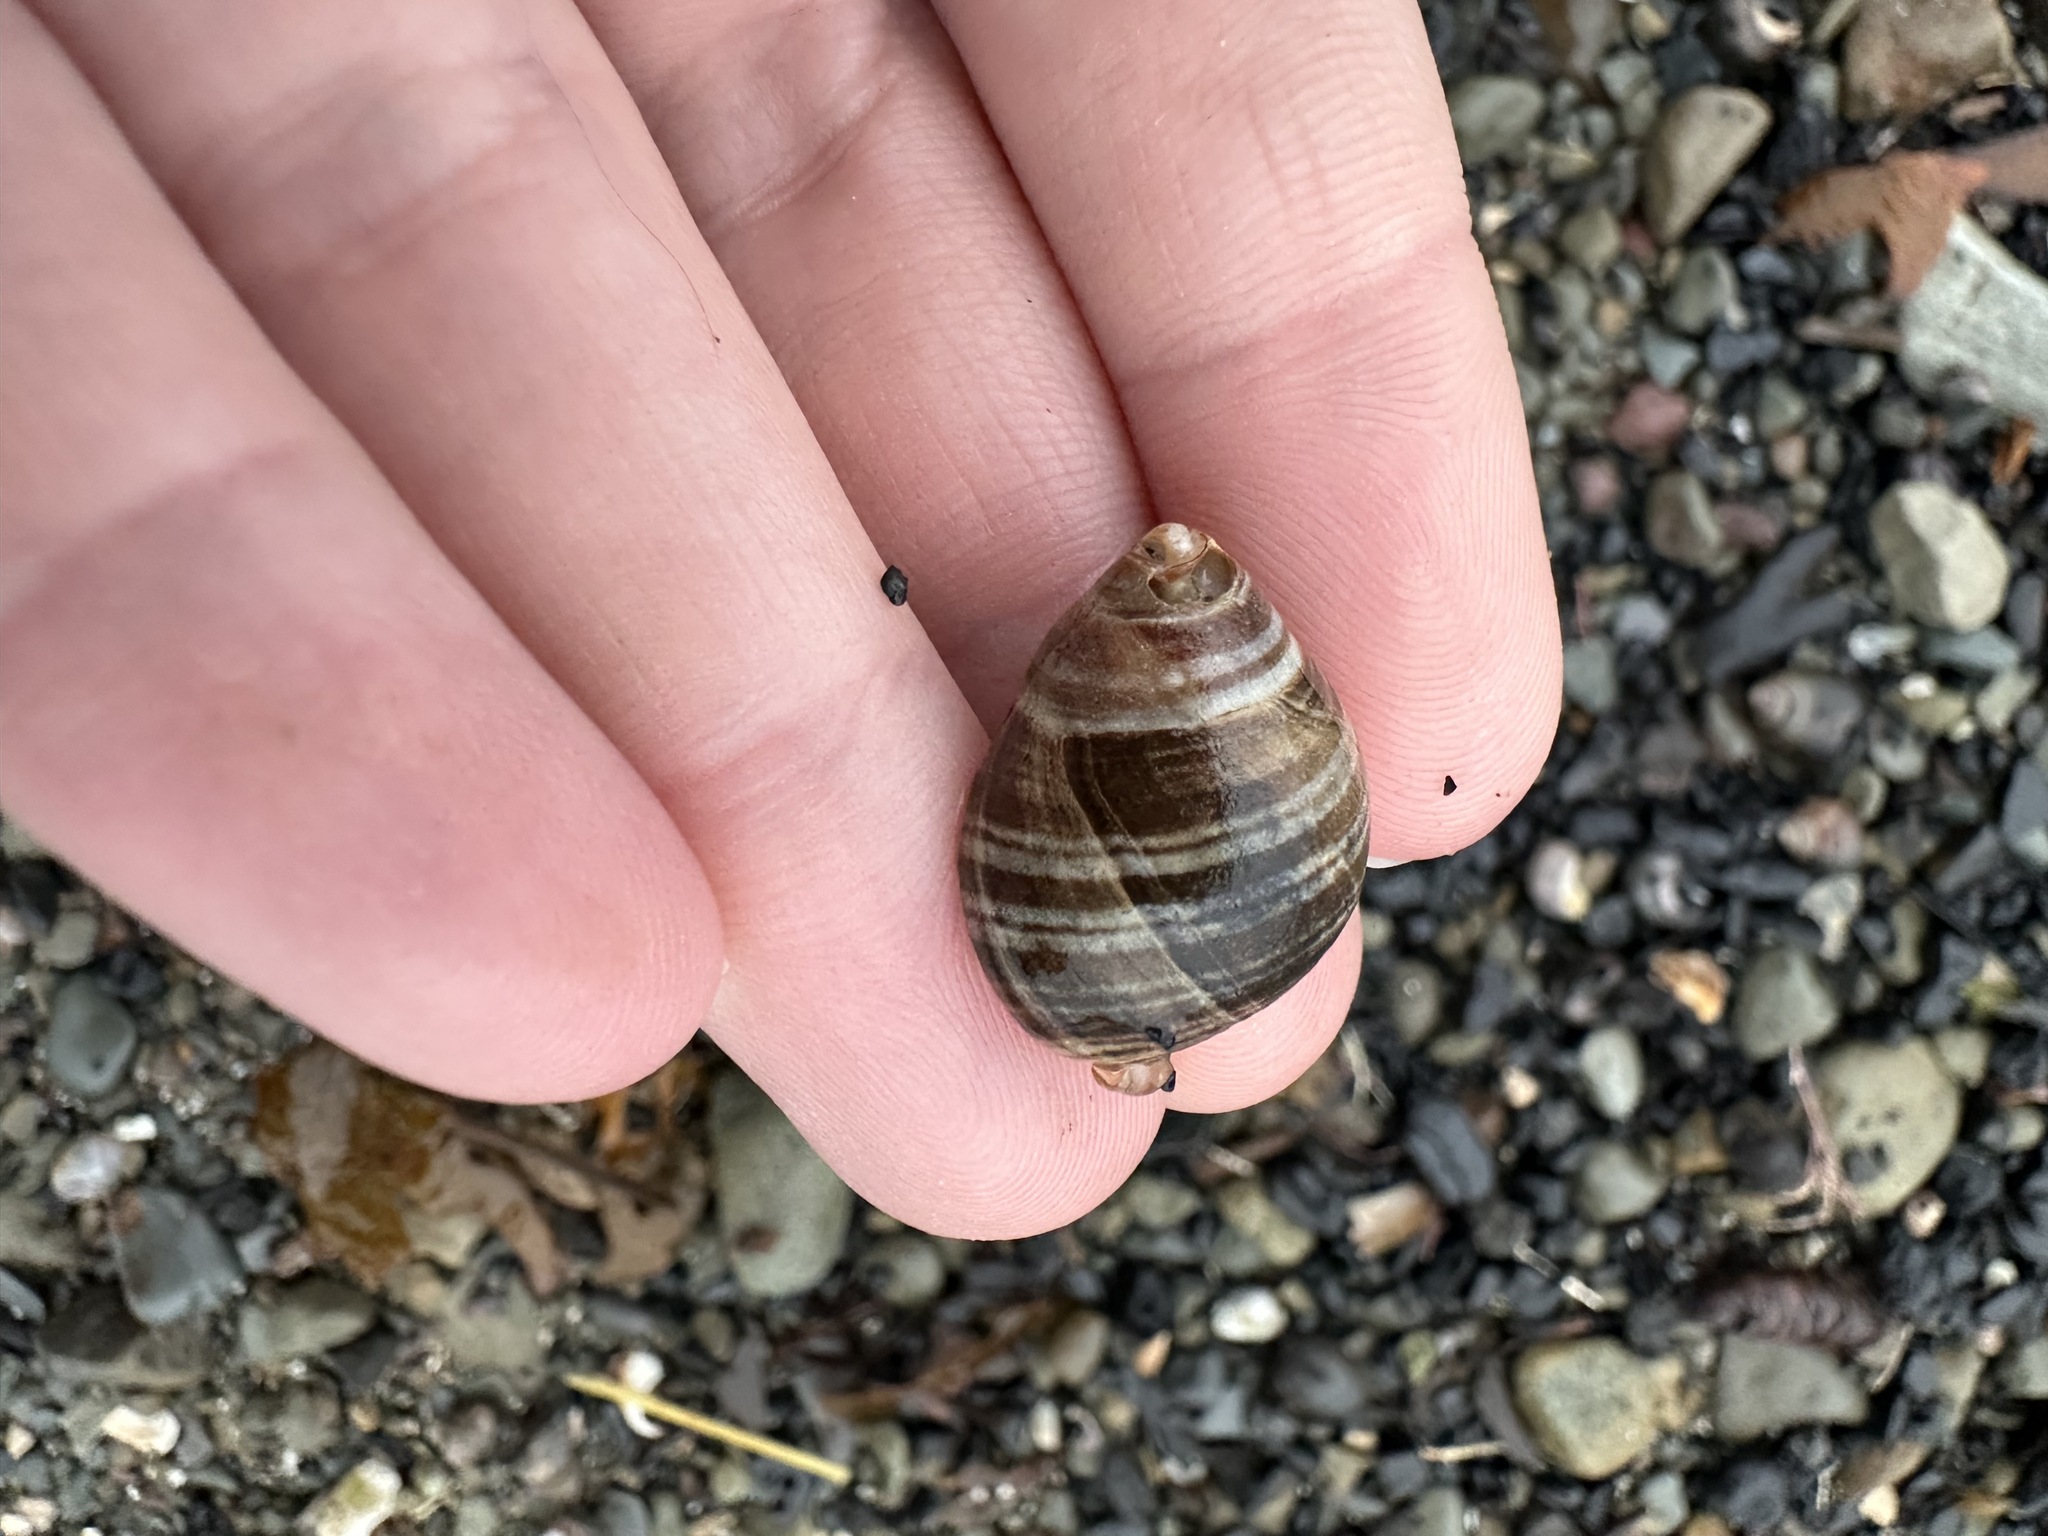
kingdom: Animalia
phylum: Mollusca
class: Gastropoda
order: Littorinimorpha
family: Littorinidae
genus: Littorina
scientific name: Littorina littorea
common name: Common periwinkle
